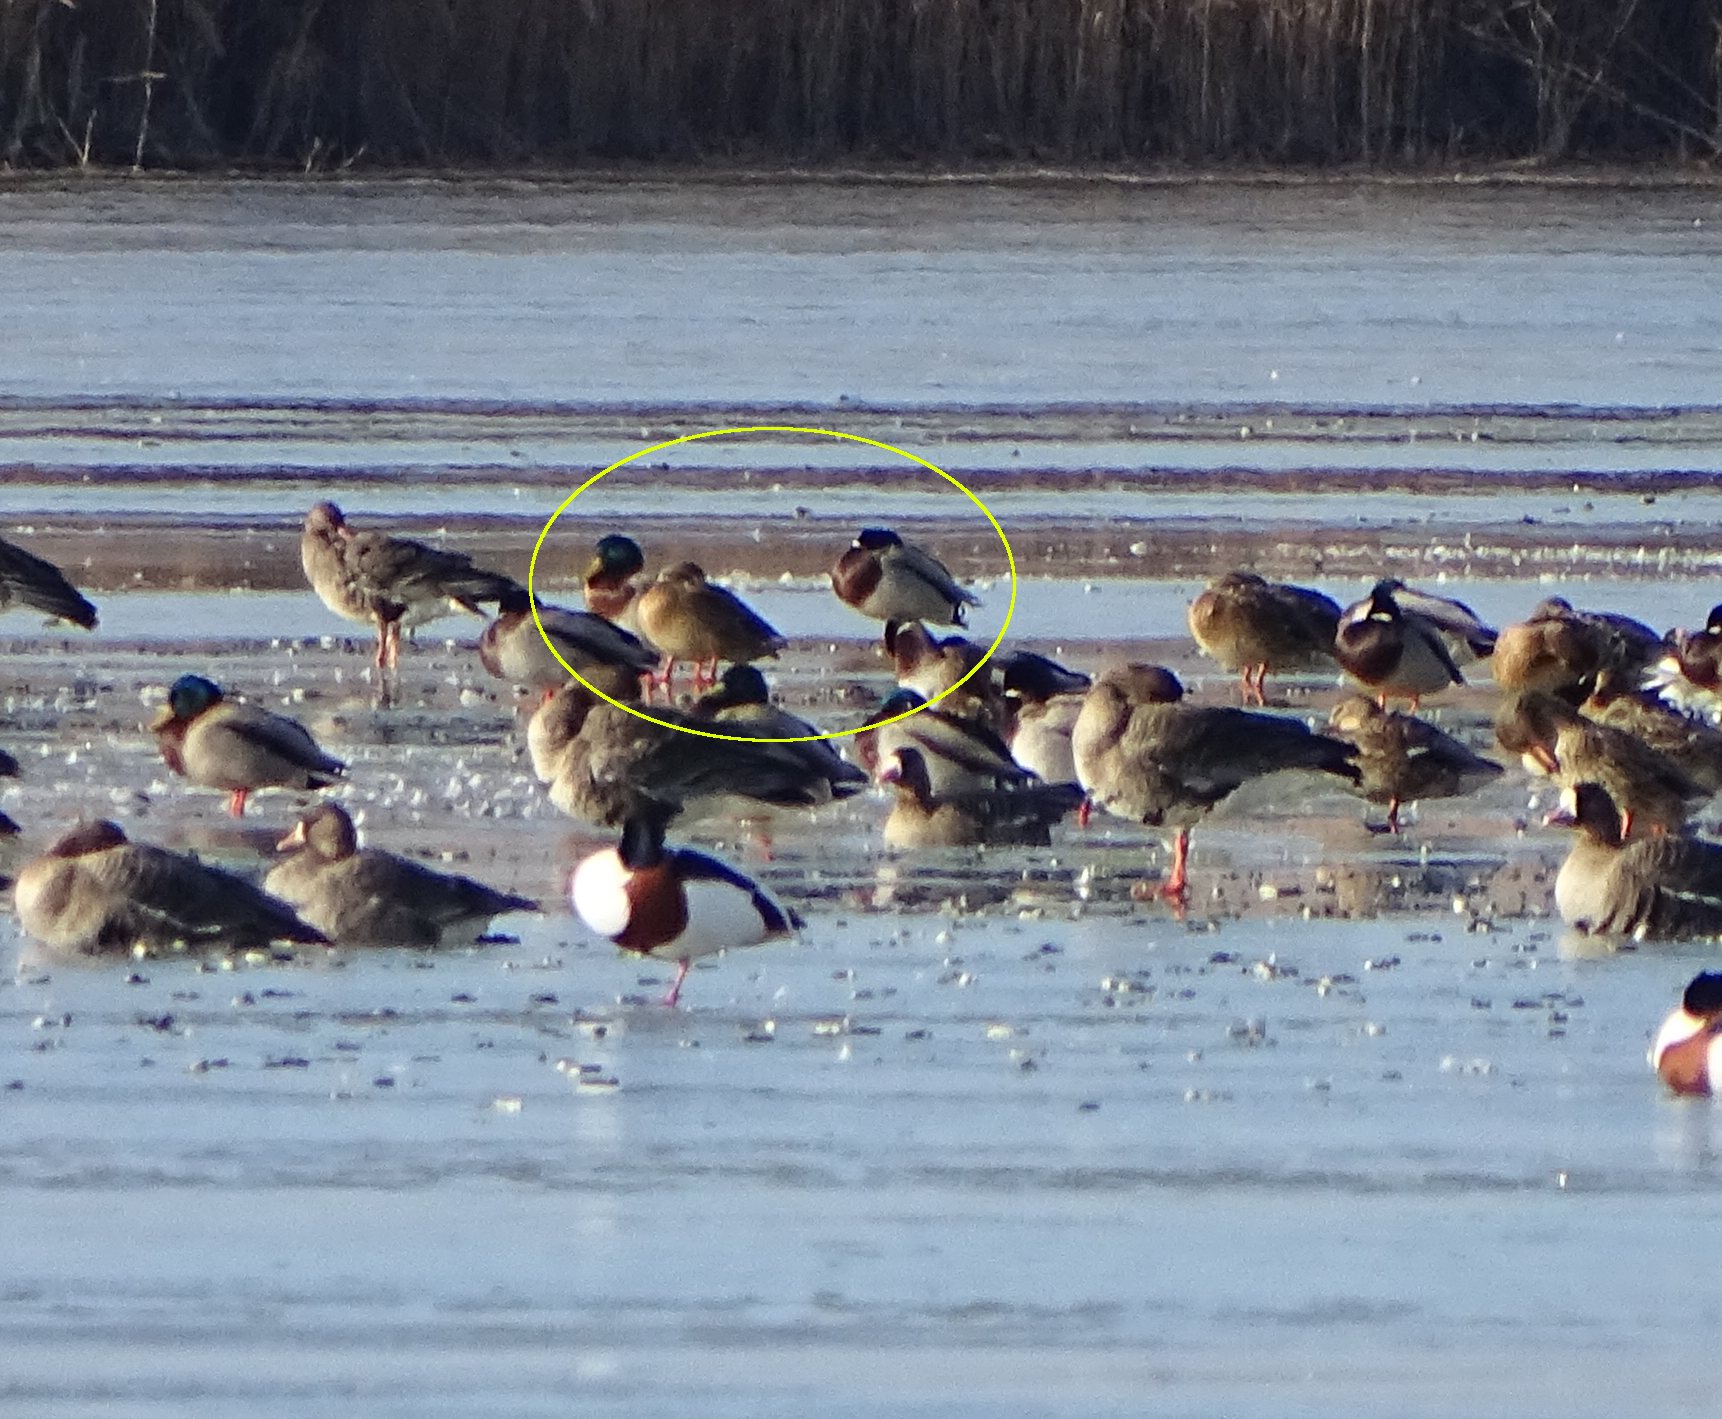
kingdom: Animalia
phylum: Chordata
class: Aves
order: Anseriformes
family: Anatidae
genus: Anas
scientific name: Anas platyrhynchos
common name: Mallard
